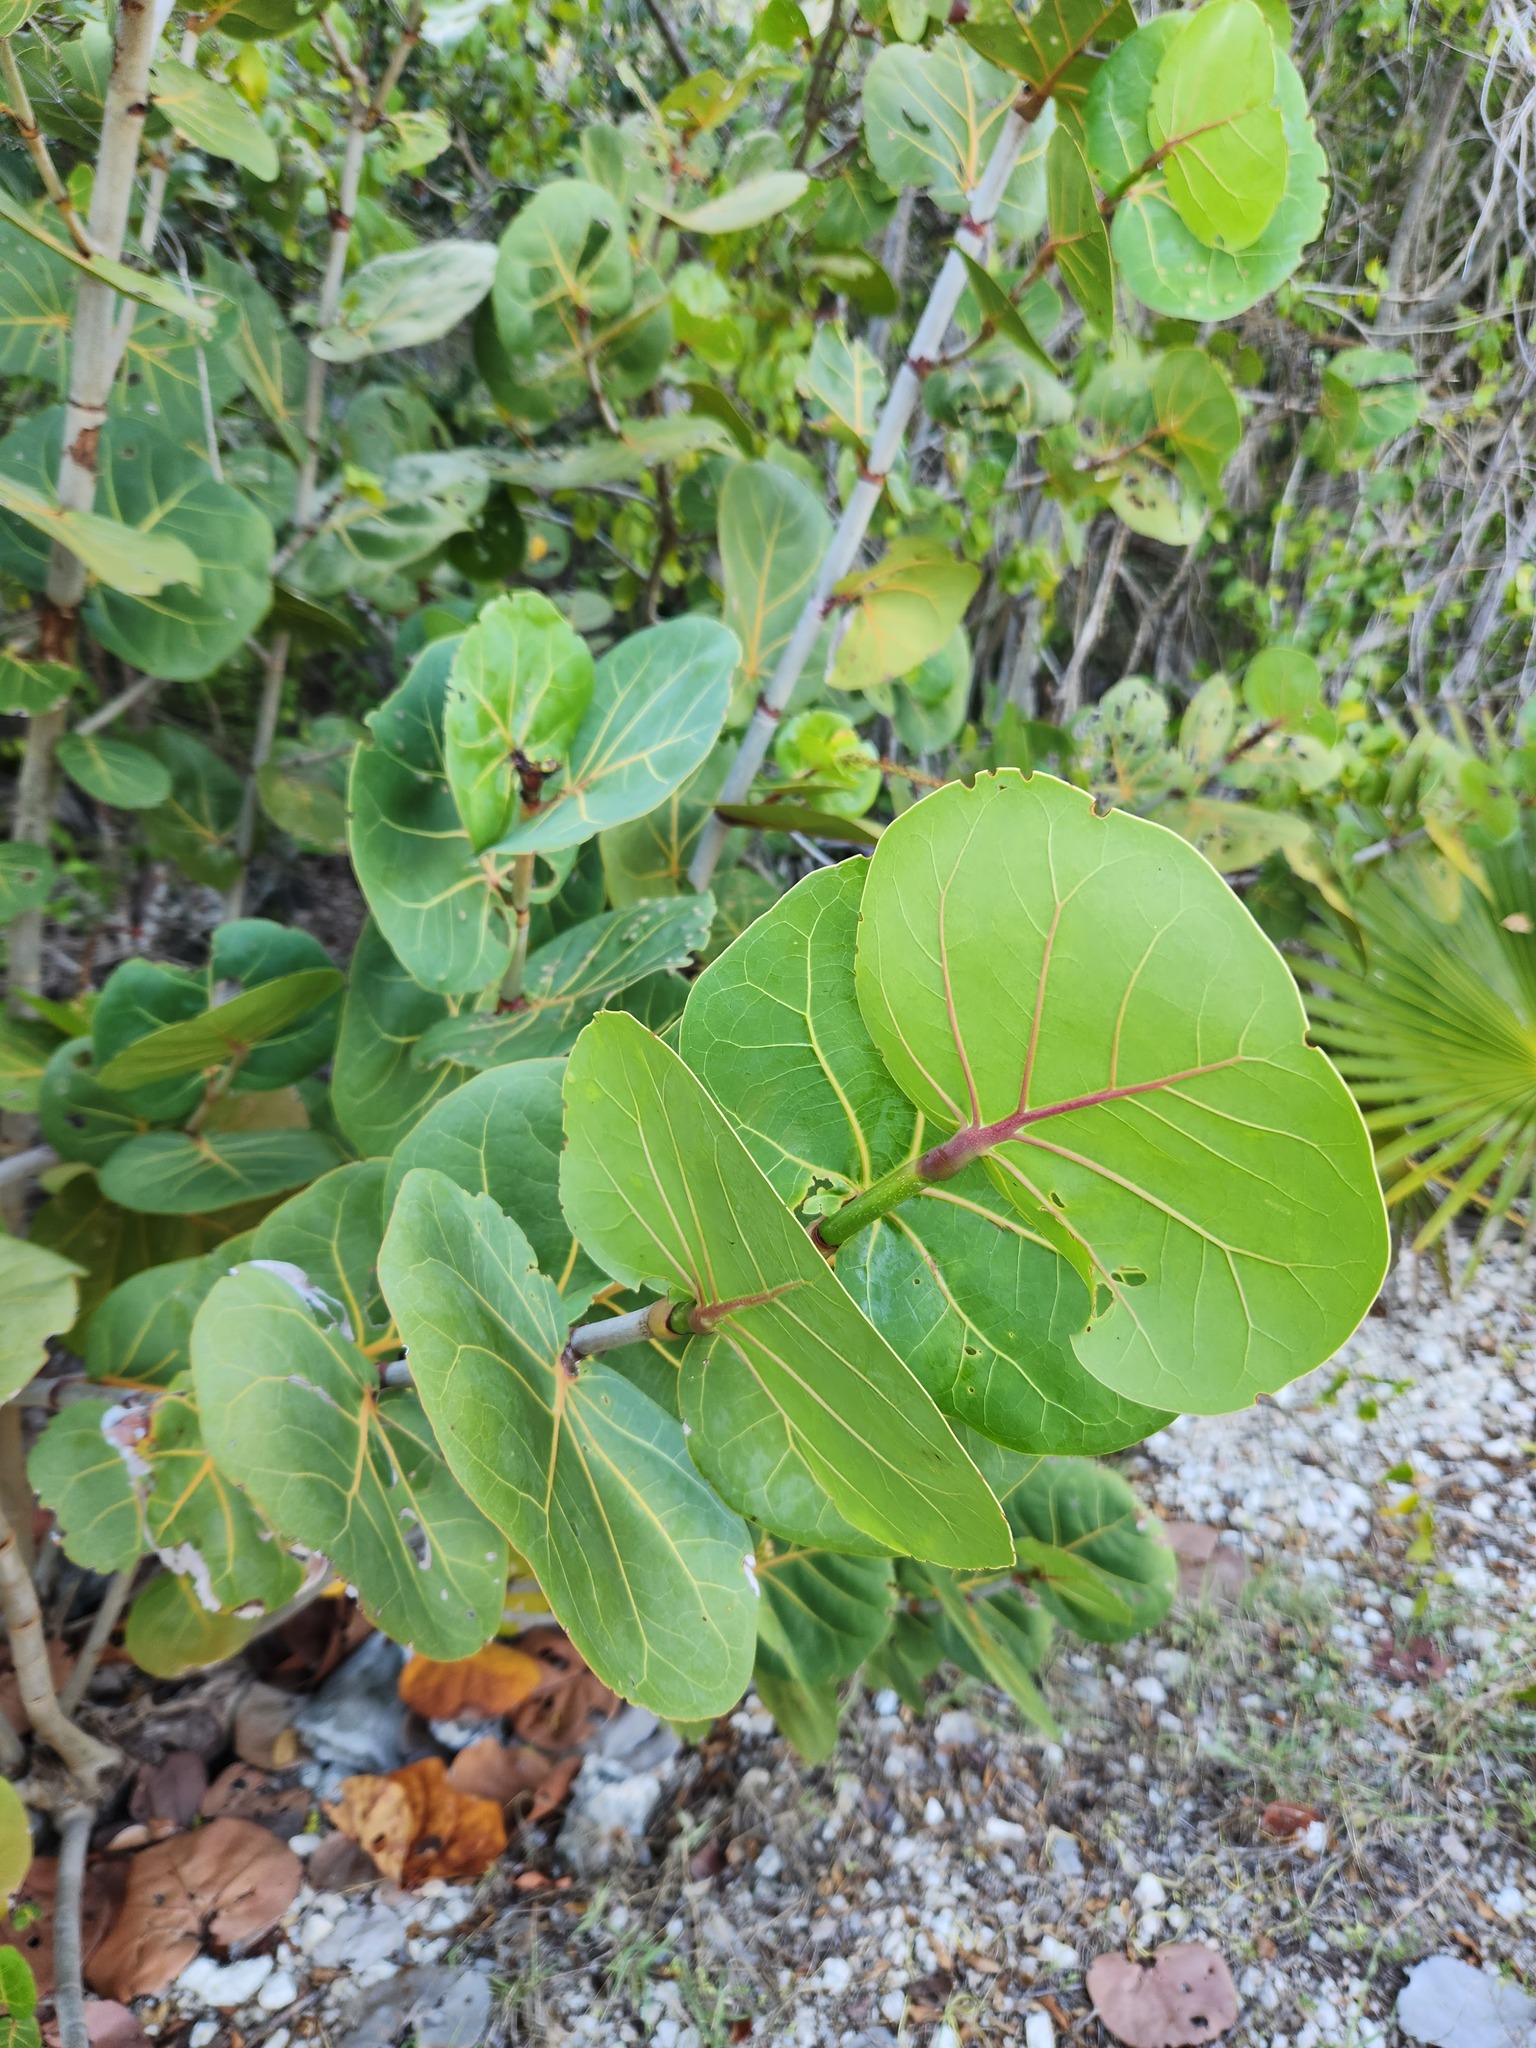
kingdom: Plantae
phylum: Tracheophyta
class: Magnoliopsida
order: Caryophyllales
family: Polygonaceae
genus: Coccoloba
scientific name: Coccoloba uvifera
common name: Seagrape
